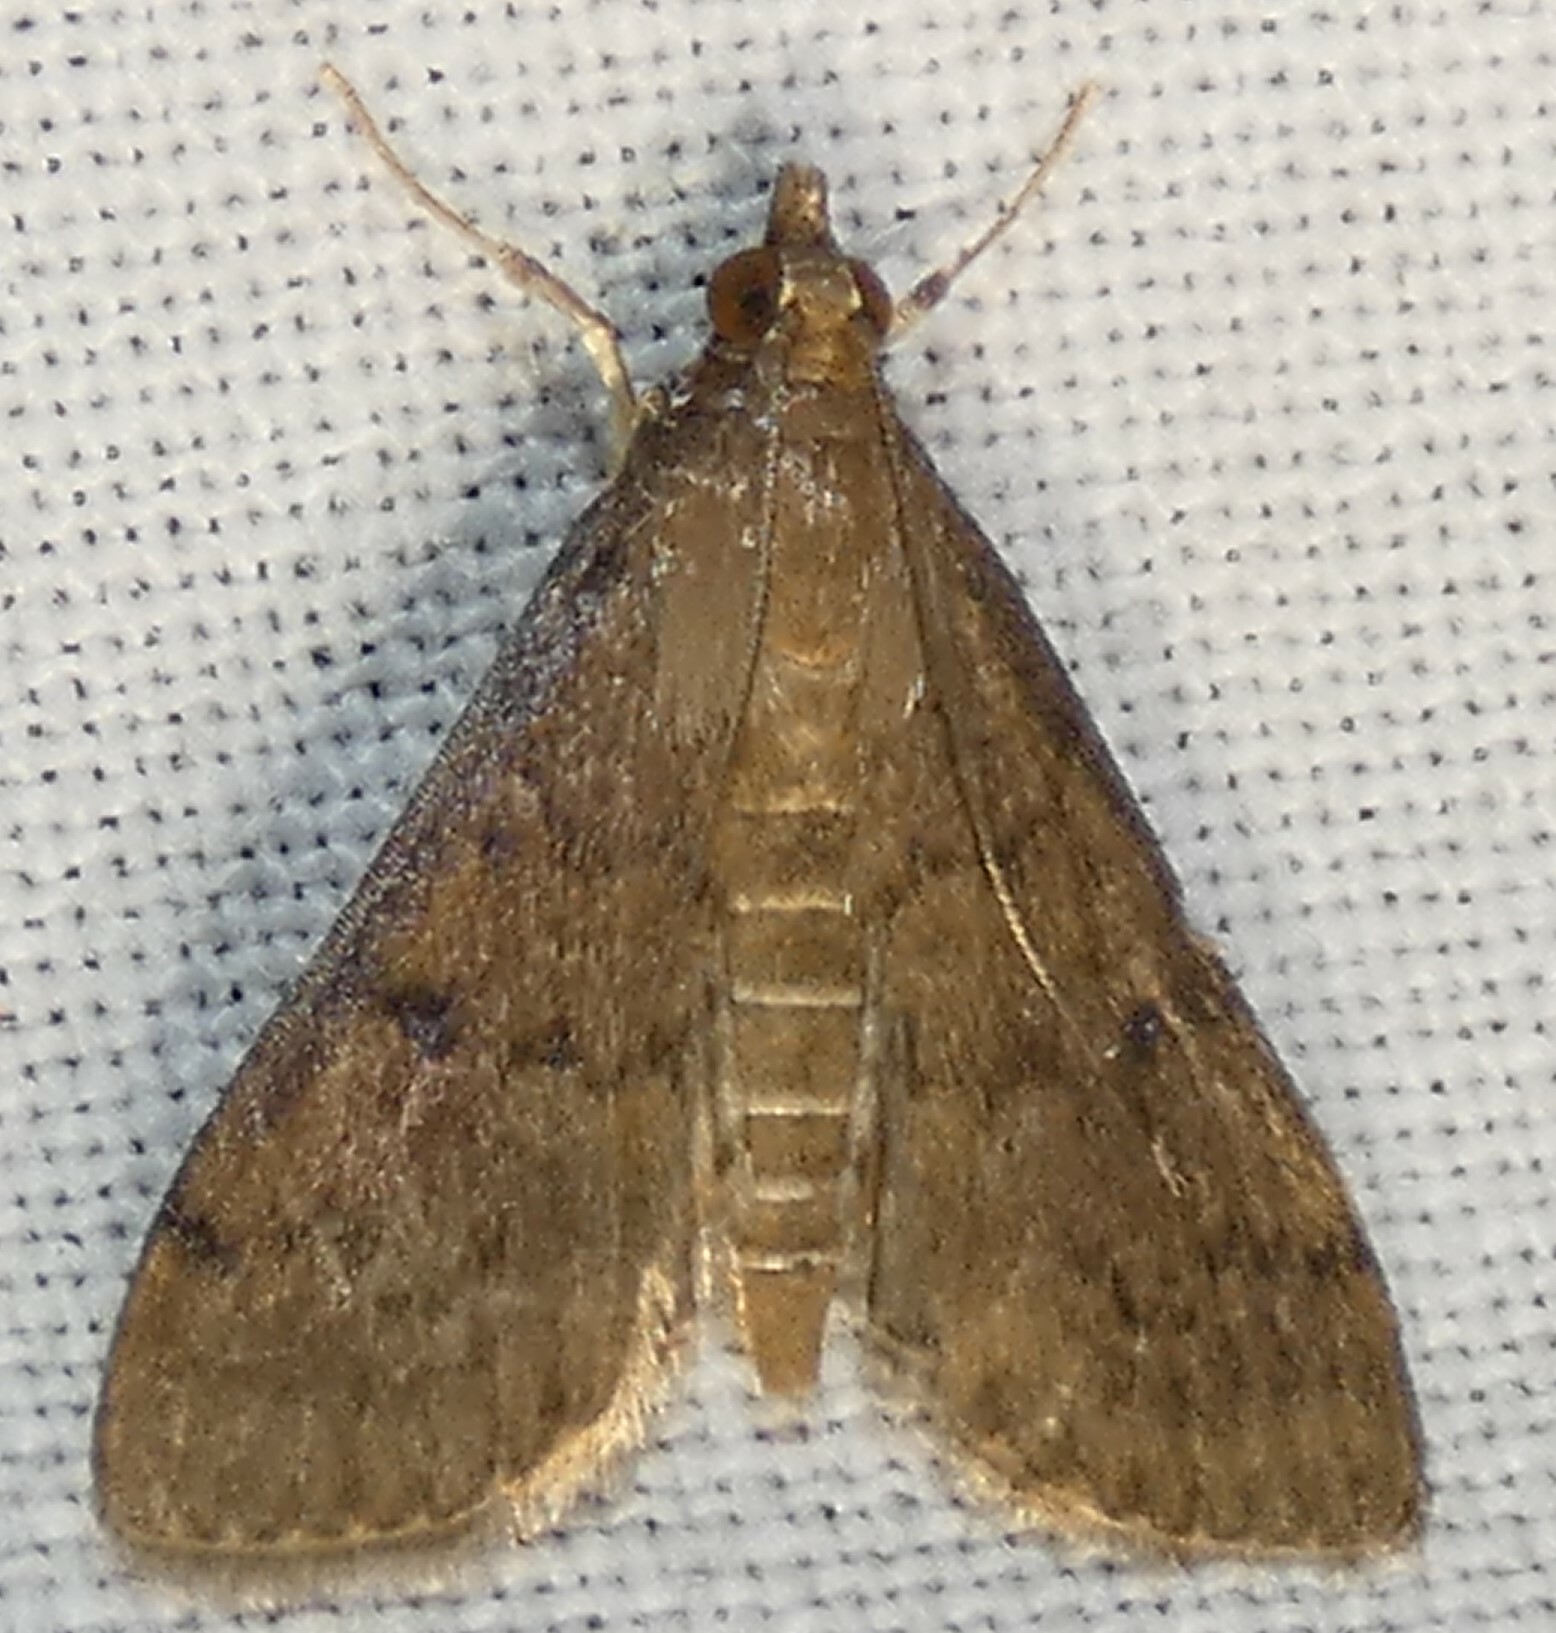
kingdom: Animalia
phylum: Arthropoda
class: Insecta
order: Lepidoptera
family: Crambidae
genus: Herpetogramma
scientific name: Herpetogramma phaeopteralis
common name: Dusky herpetogramma moth
